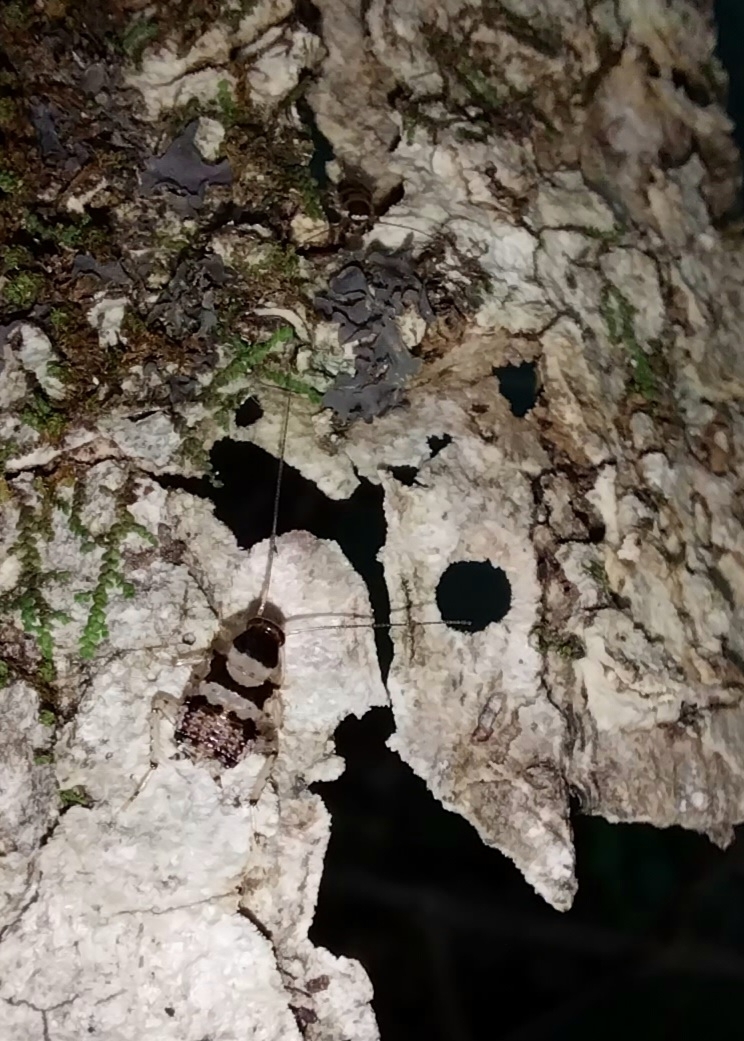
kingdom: Animalia
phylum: Arthropoda
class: Insecta
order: Blattodea
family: Ectobiidae
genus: Balta
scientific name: Balta notulata
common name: Cockroach
